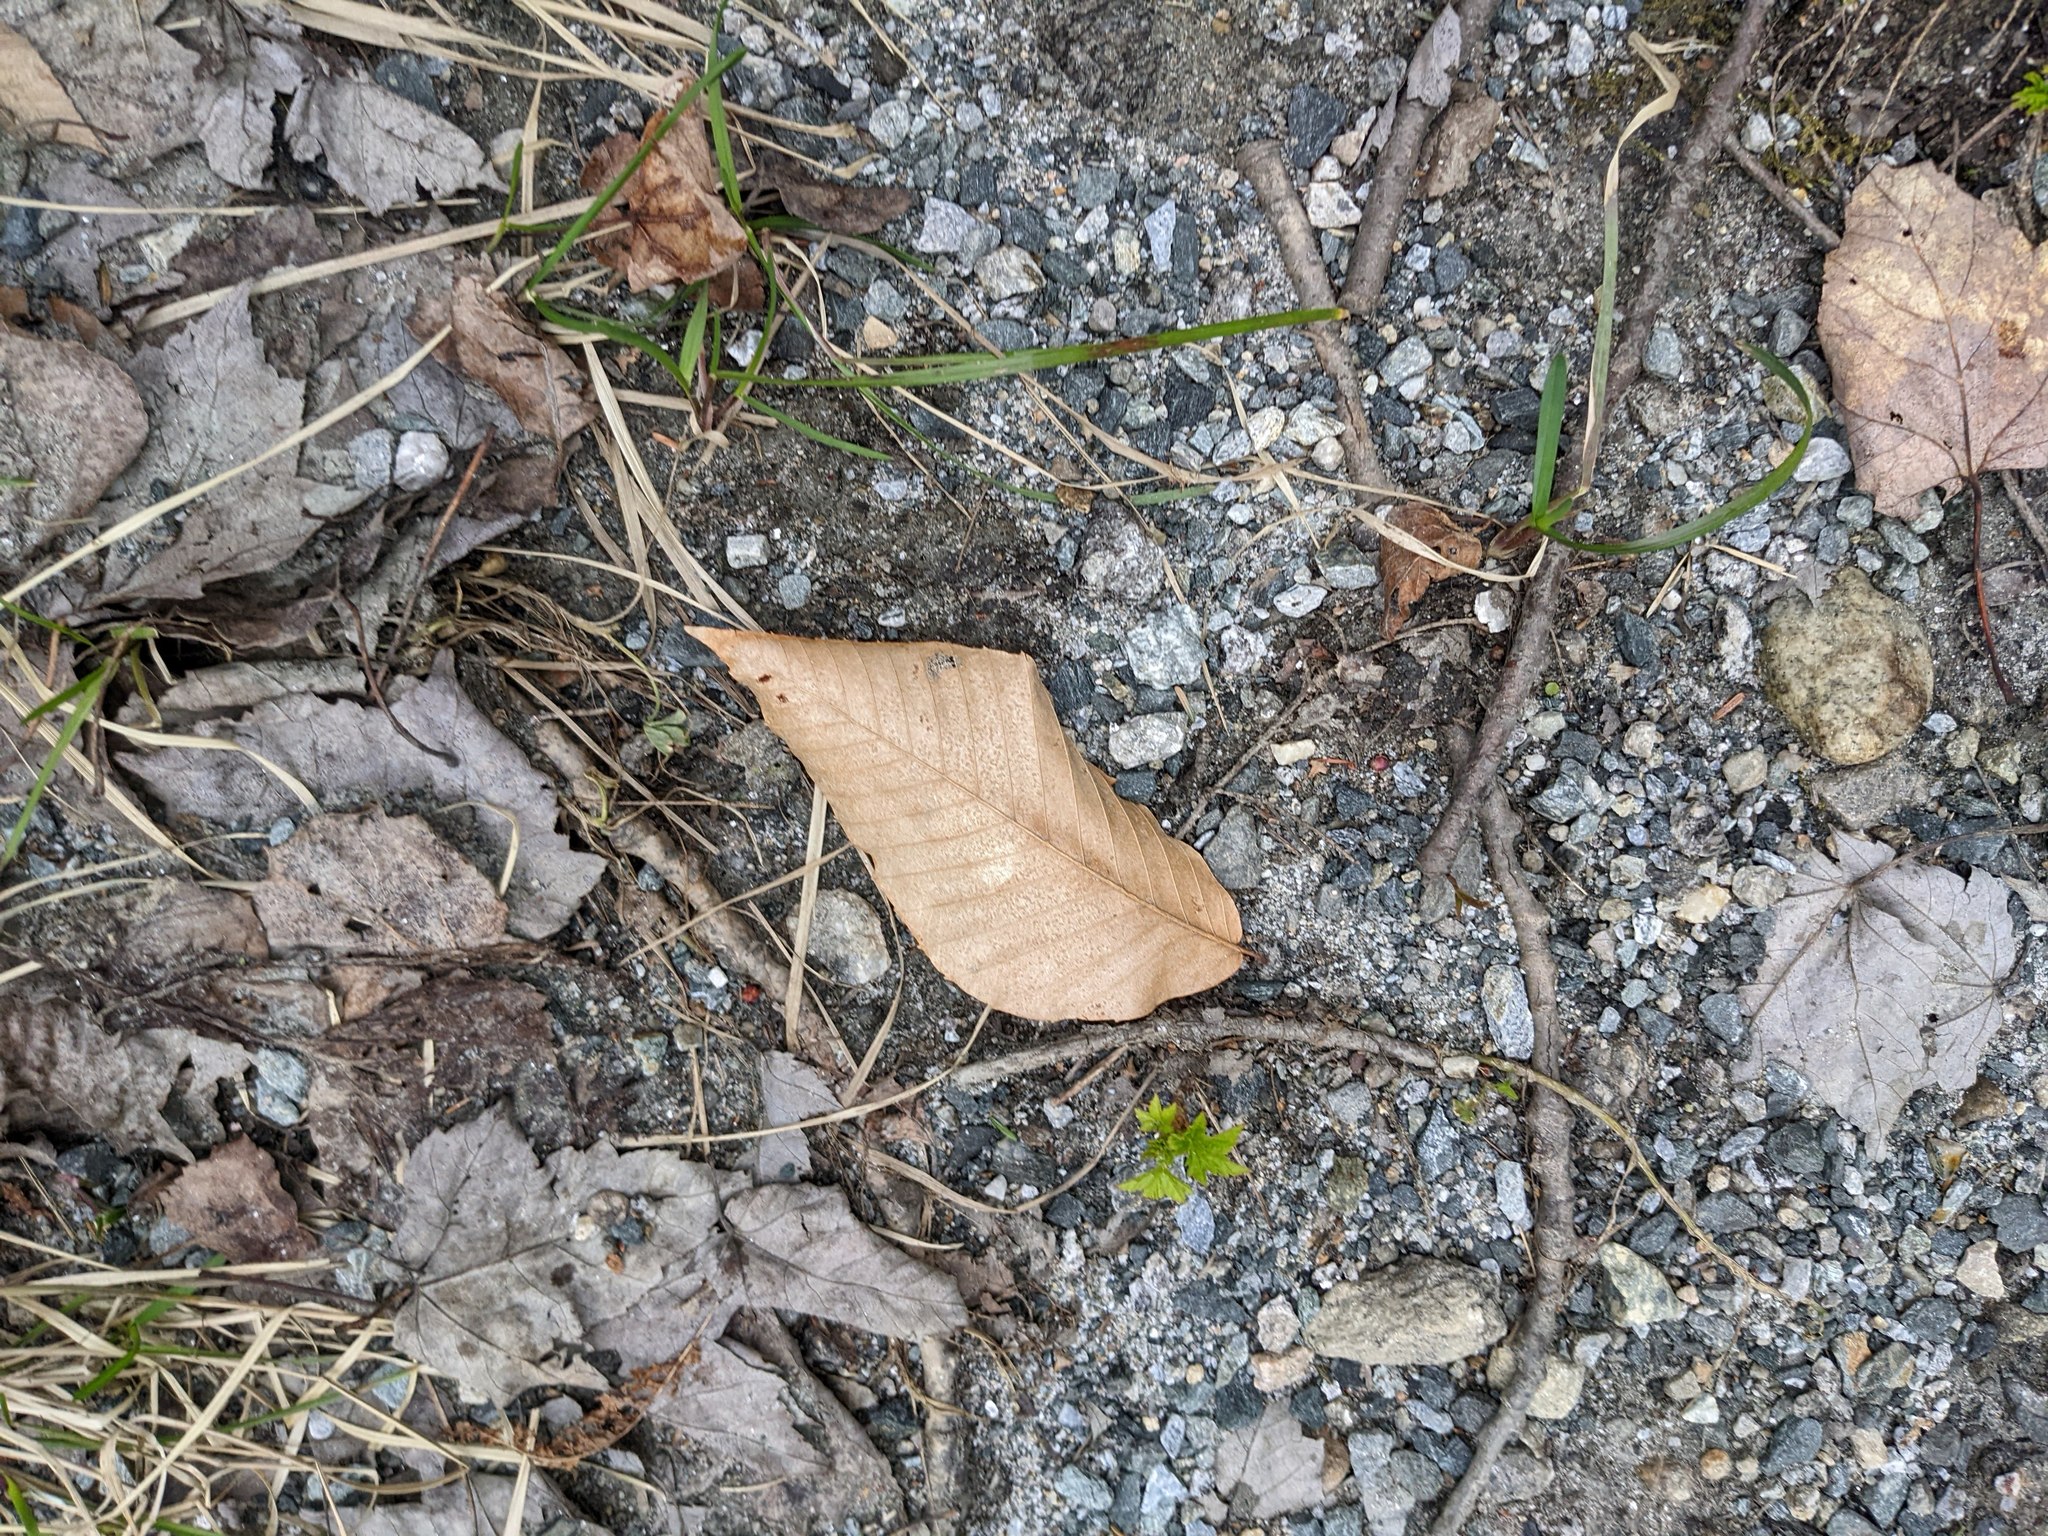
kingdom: Plantae
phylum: Tracheophyta
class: Magnoliopsida
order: Fagales
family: Fagaceae
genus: Fagus
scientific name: Fagus grandifolia
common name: American beech
